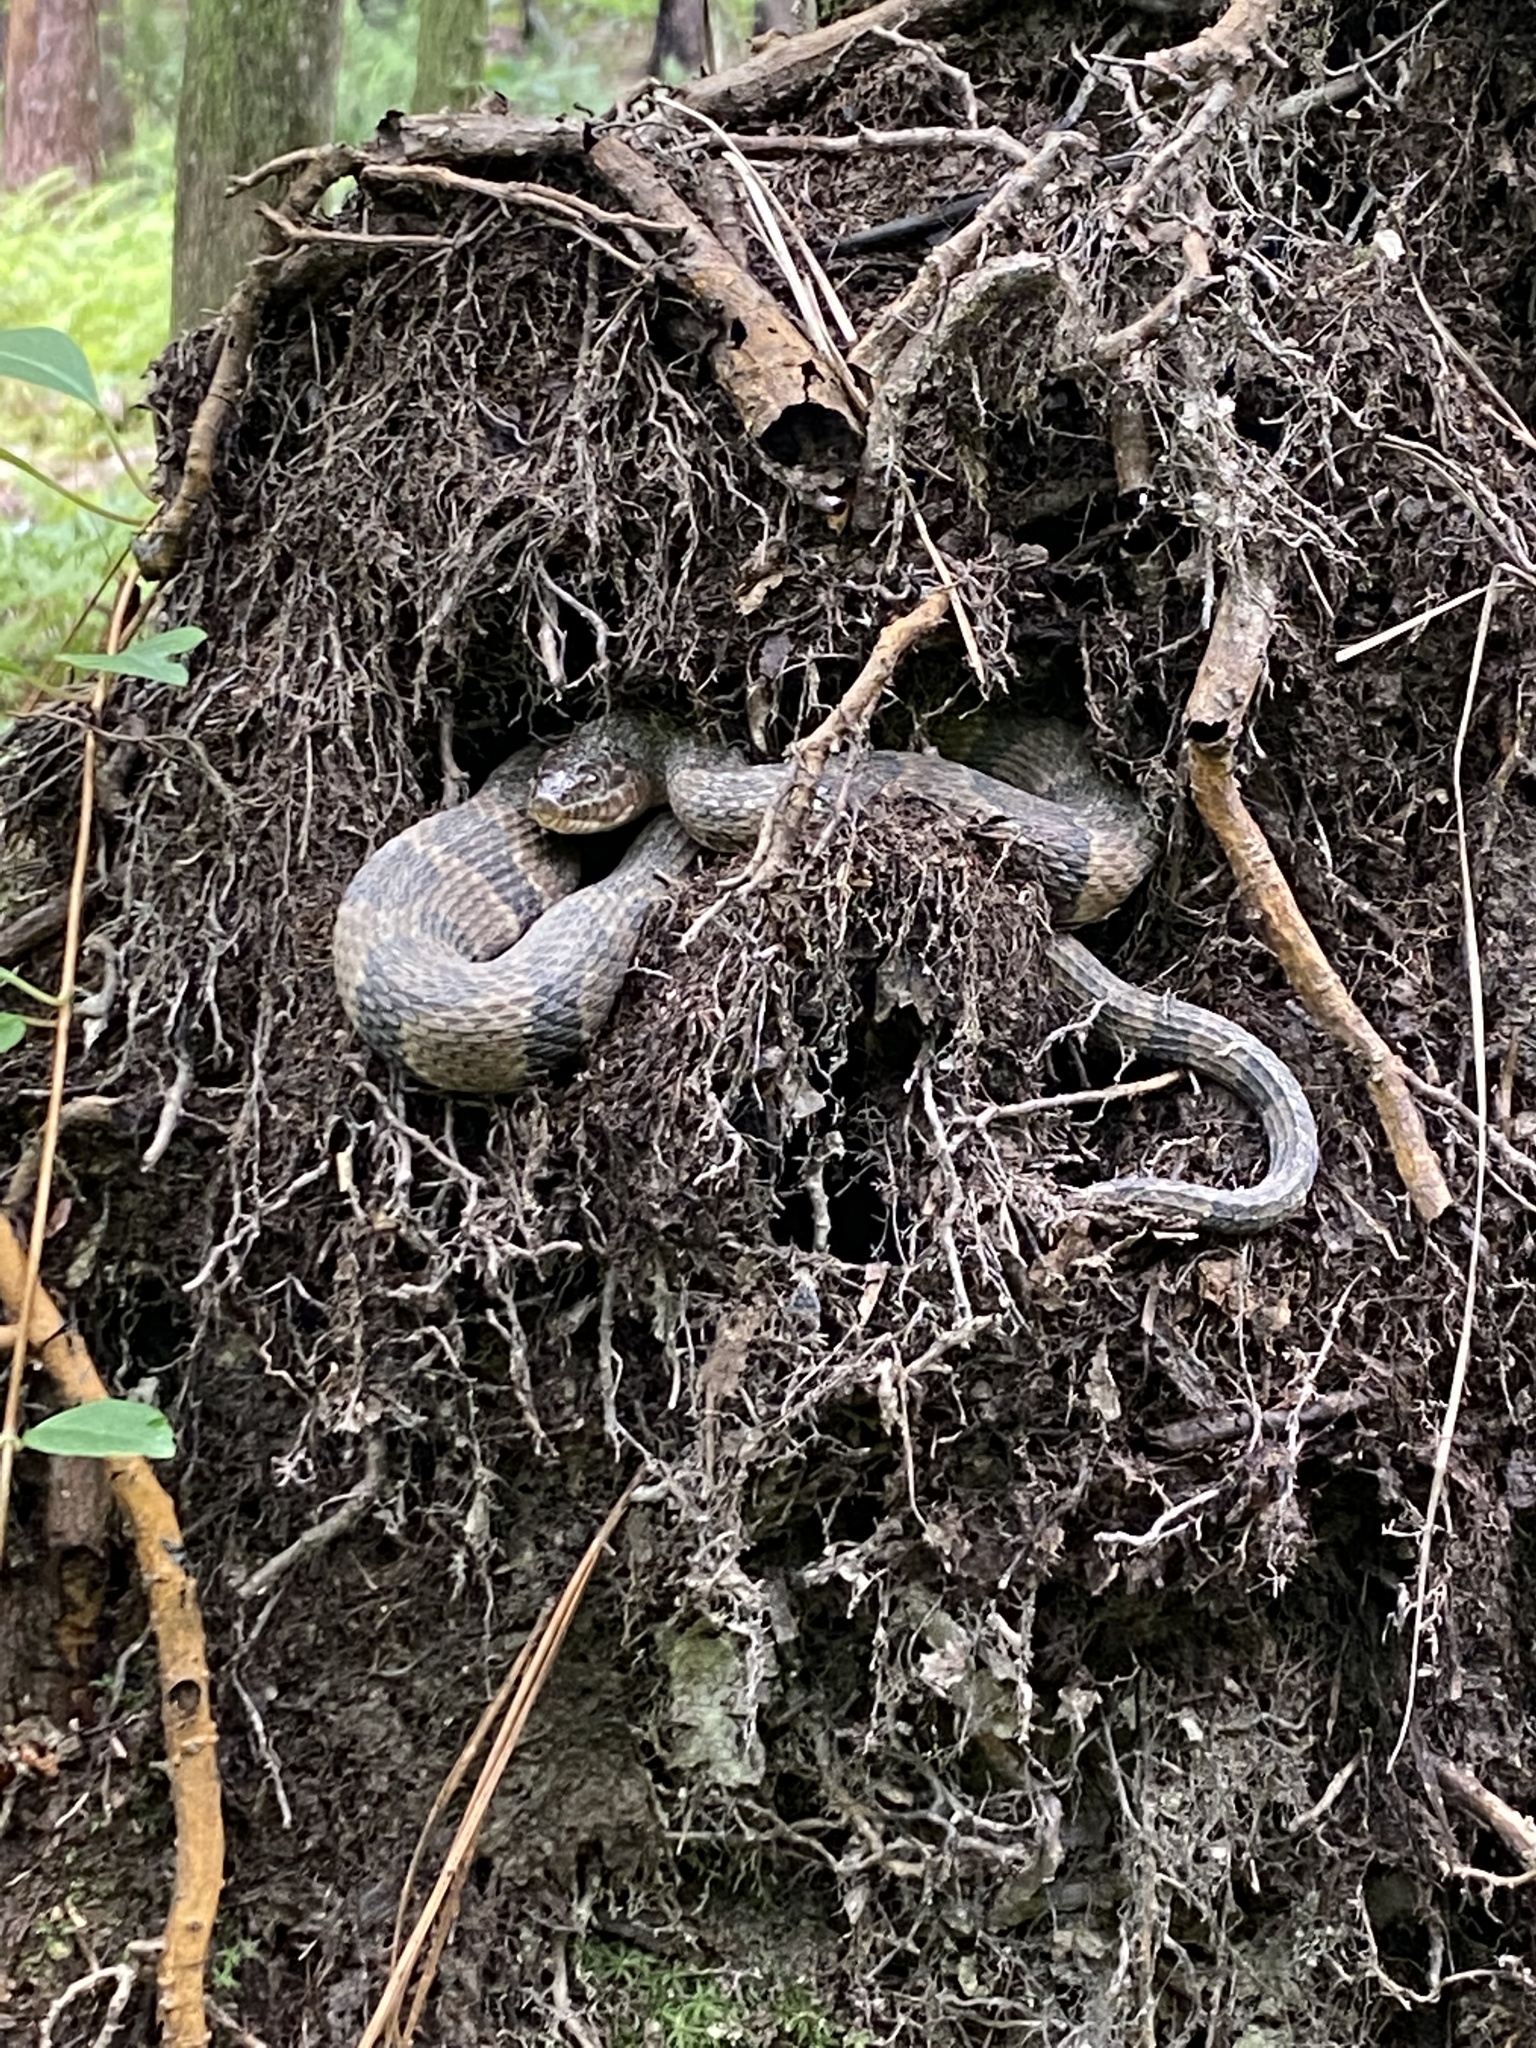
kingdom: Animalia
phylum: Chordata
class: Squamata
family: Colubridae
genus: Nerodia
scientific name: Nerodia sipedon
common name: Northern water snake
